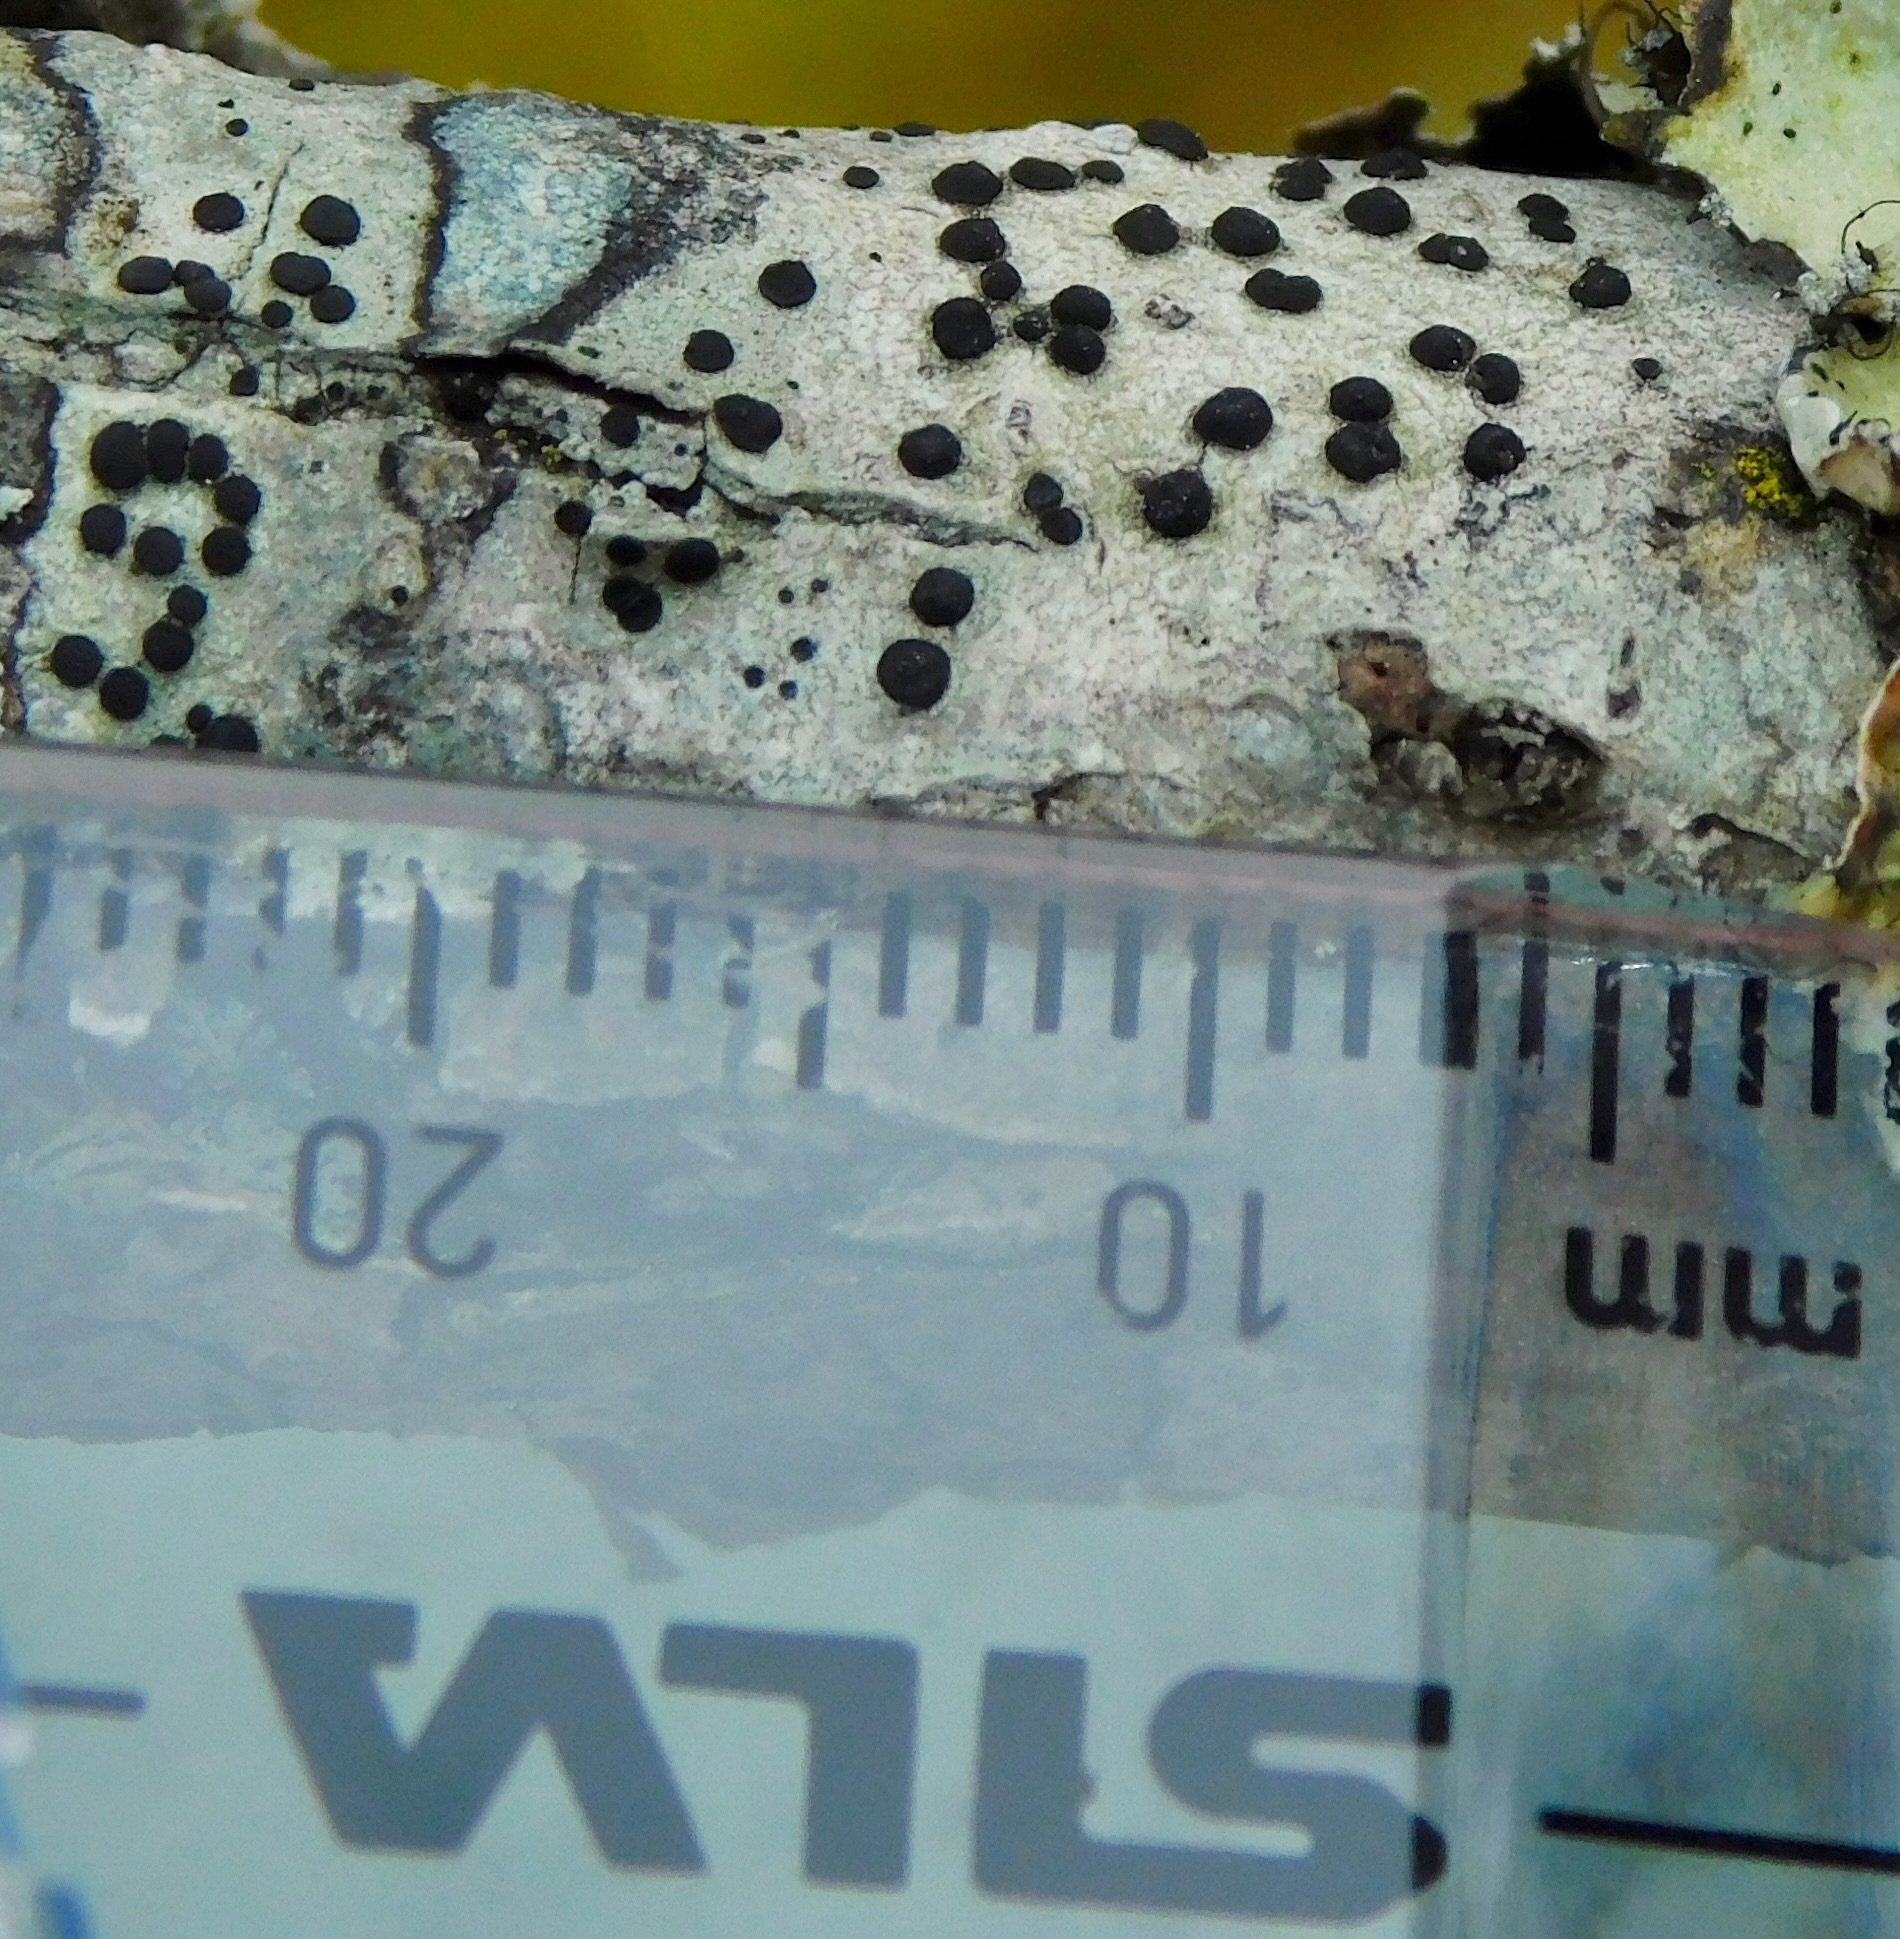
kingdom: Fungi
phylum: Ascomycota
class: Lecanoromycetes
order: Caliciales
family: Caliciaceae
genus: Buellia
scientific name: Buellia erubescens
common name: Common button lichen
